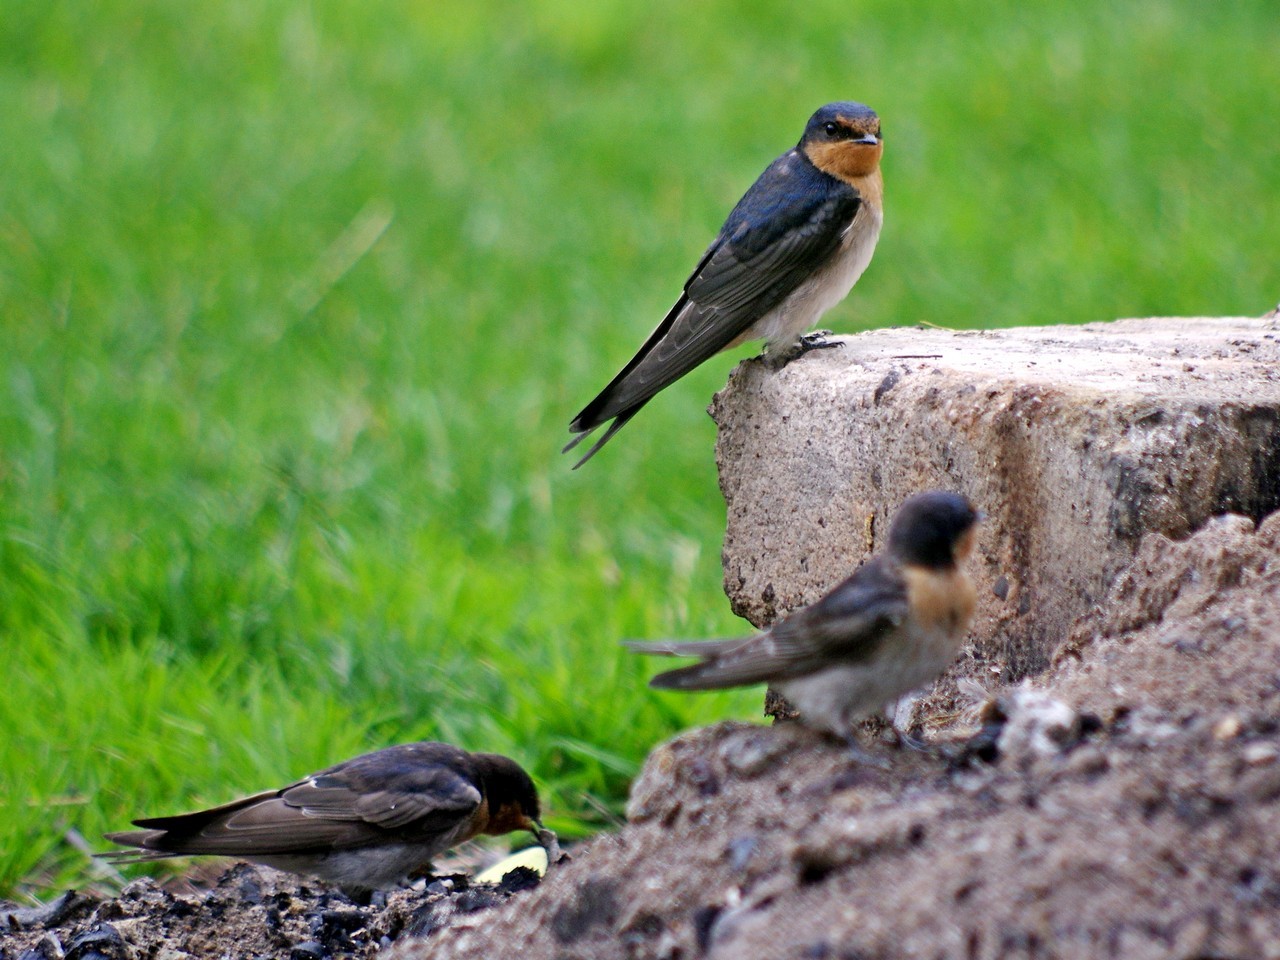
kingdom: Animalia
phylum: Chordata
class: Aves
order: Passeriformes
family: Hirundinidae
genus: Hirundo
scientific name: Hirundo neoxena
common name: Welcome swallow
